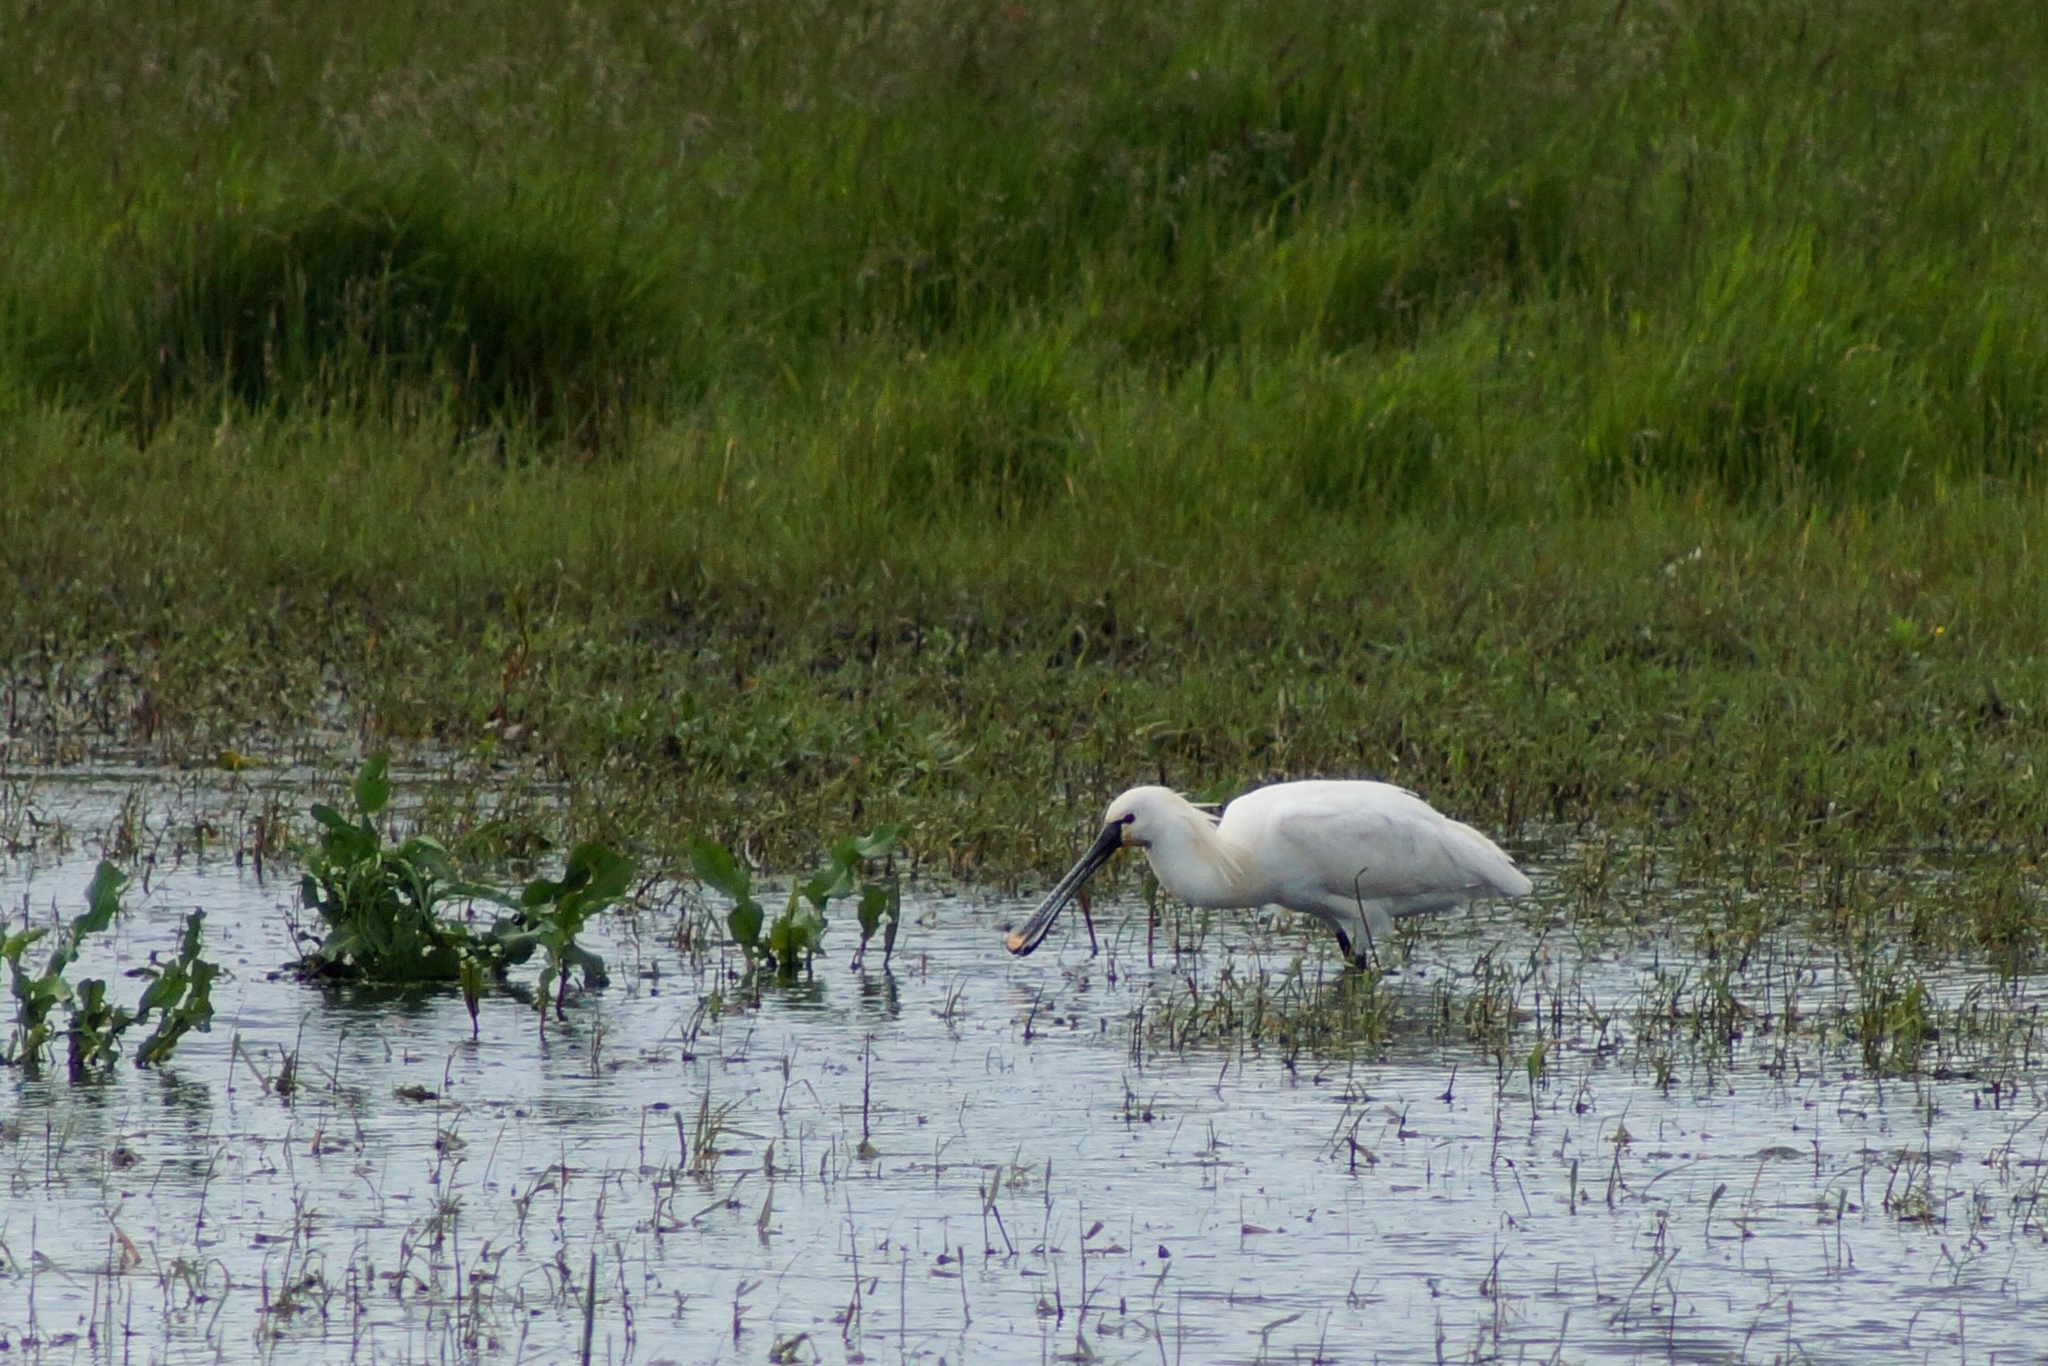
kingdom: Animalia
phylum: Chordata
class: Aves
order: Pelecaniformes
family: Threskiornithidae
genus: Platalea
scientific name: Platalea leucorodia
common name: Eurasian spoonbill
